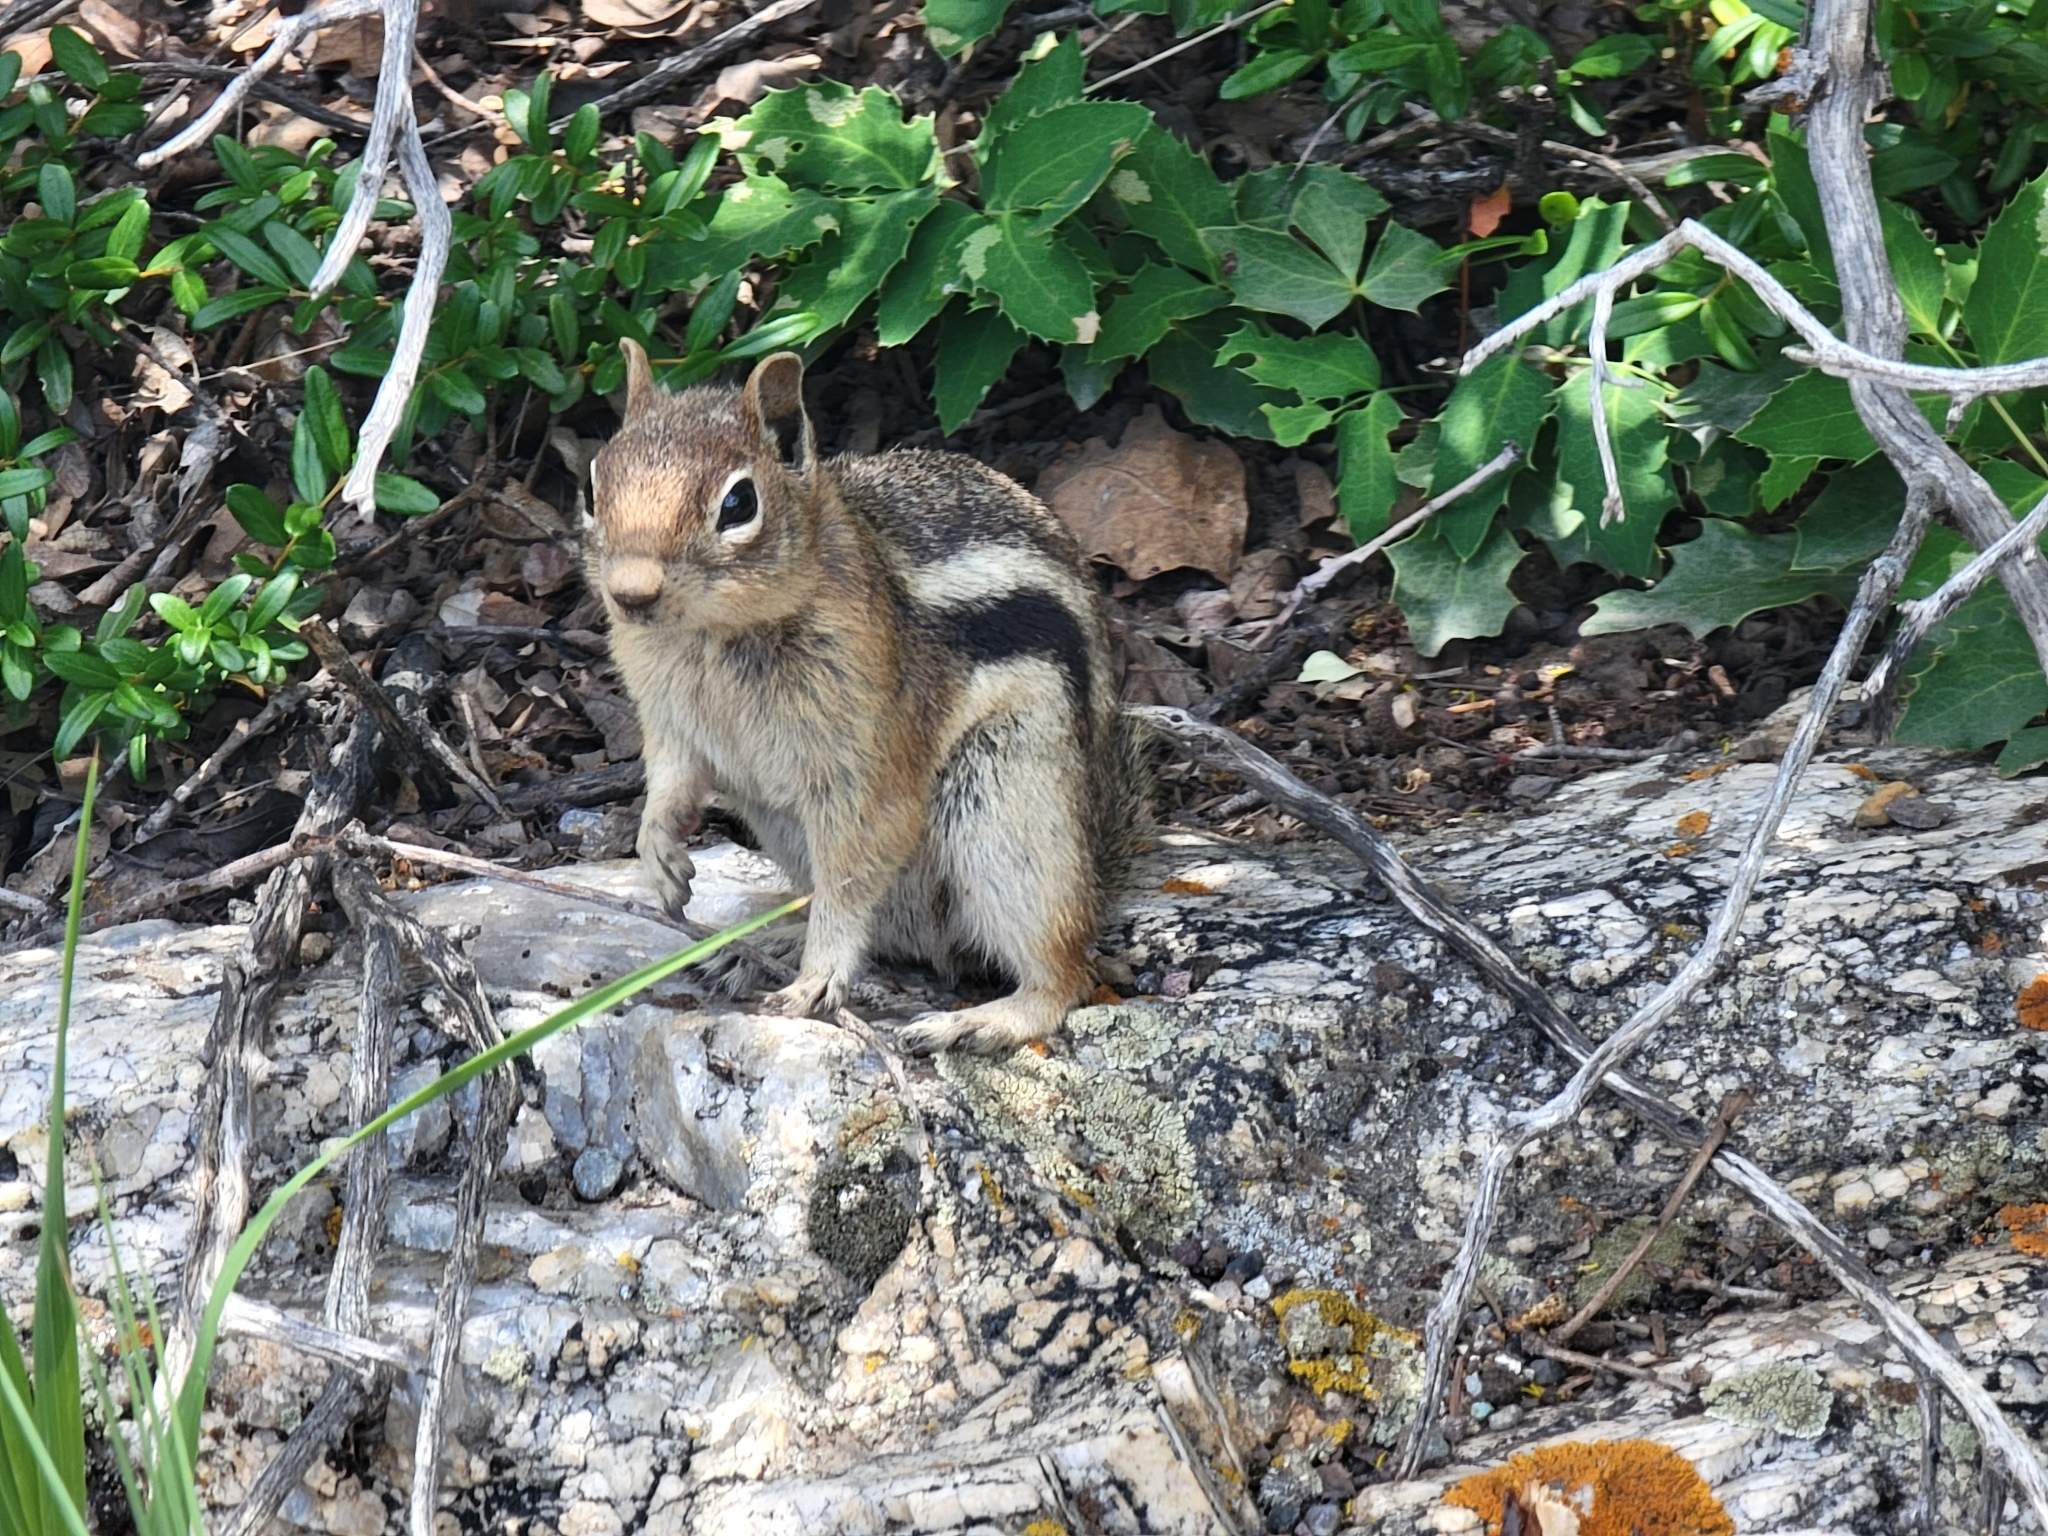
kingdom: Animalia
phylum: Chordata
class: Mammalia
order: Rodentia
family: Sciuridae
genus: Callospermophilus
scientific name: Callospermophilus lateralis
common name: Golden-mantled ground squirrel
